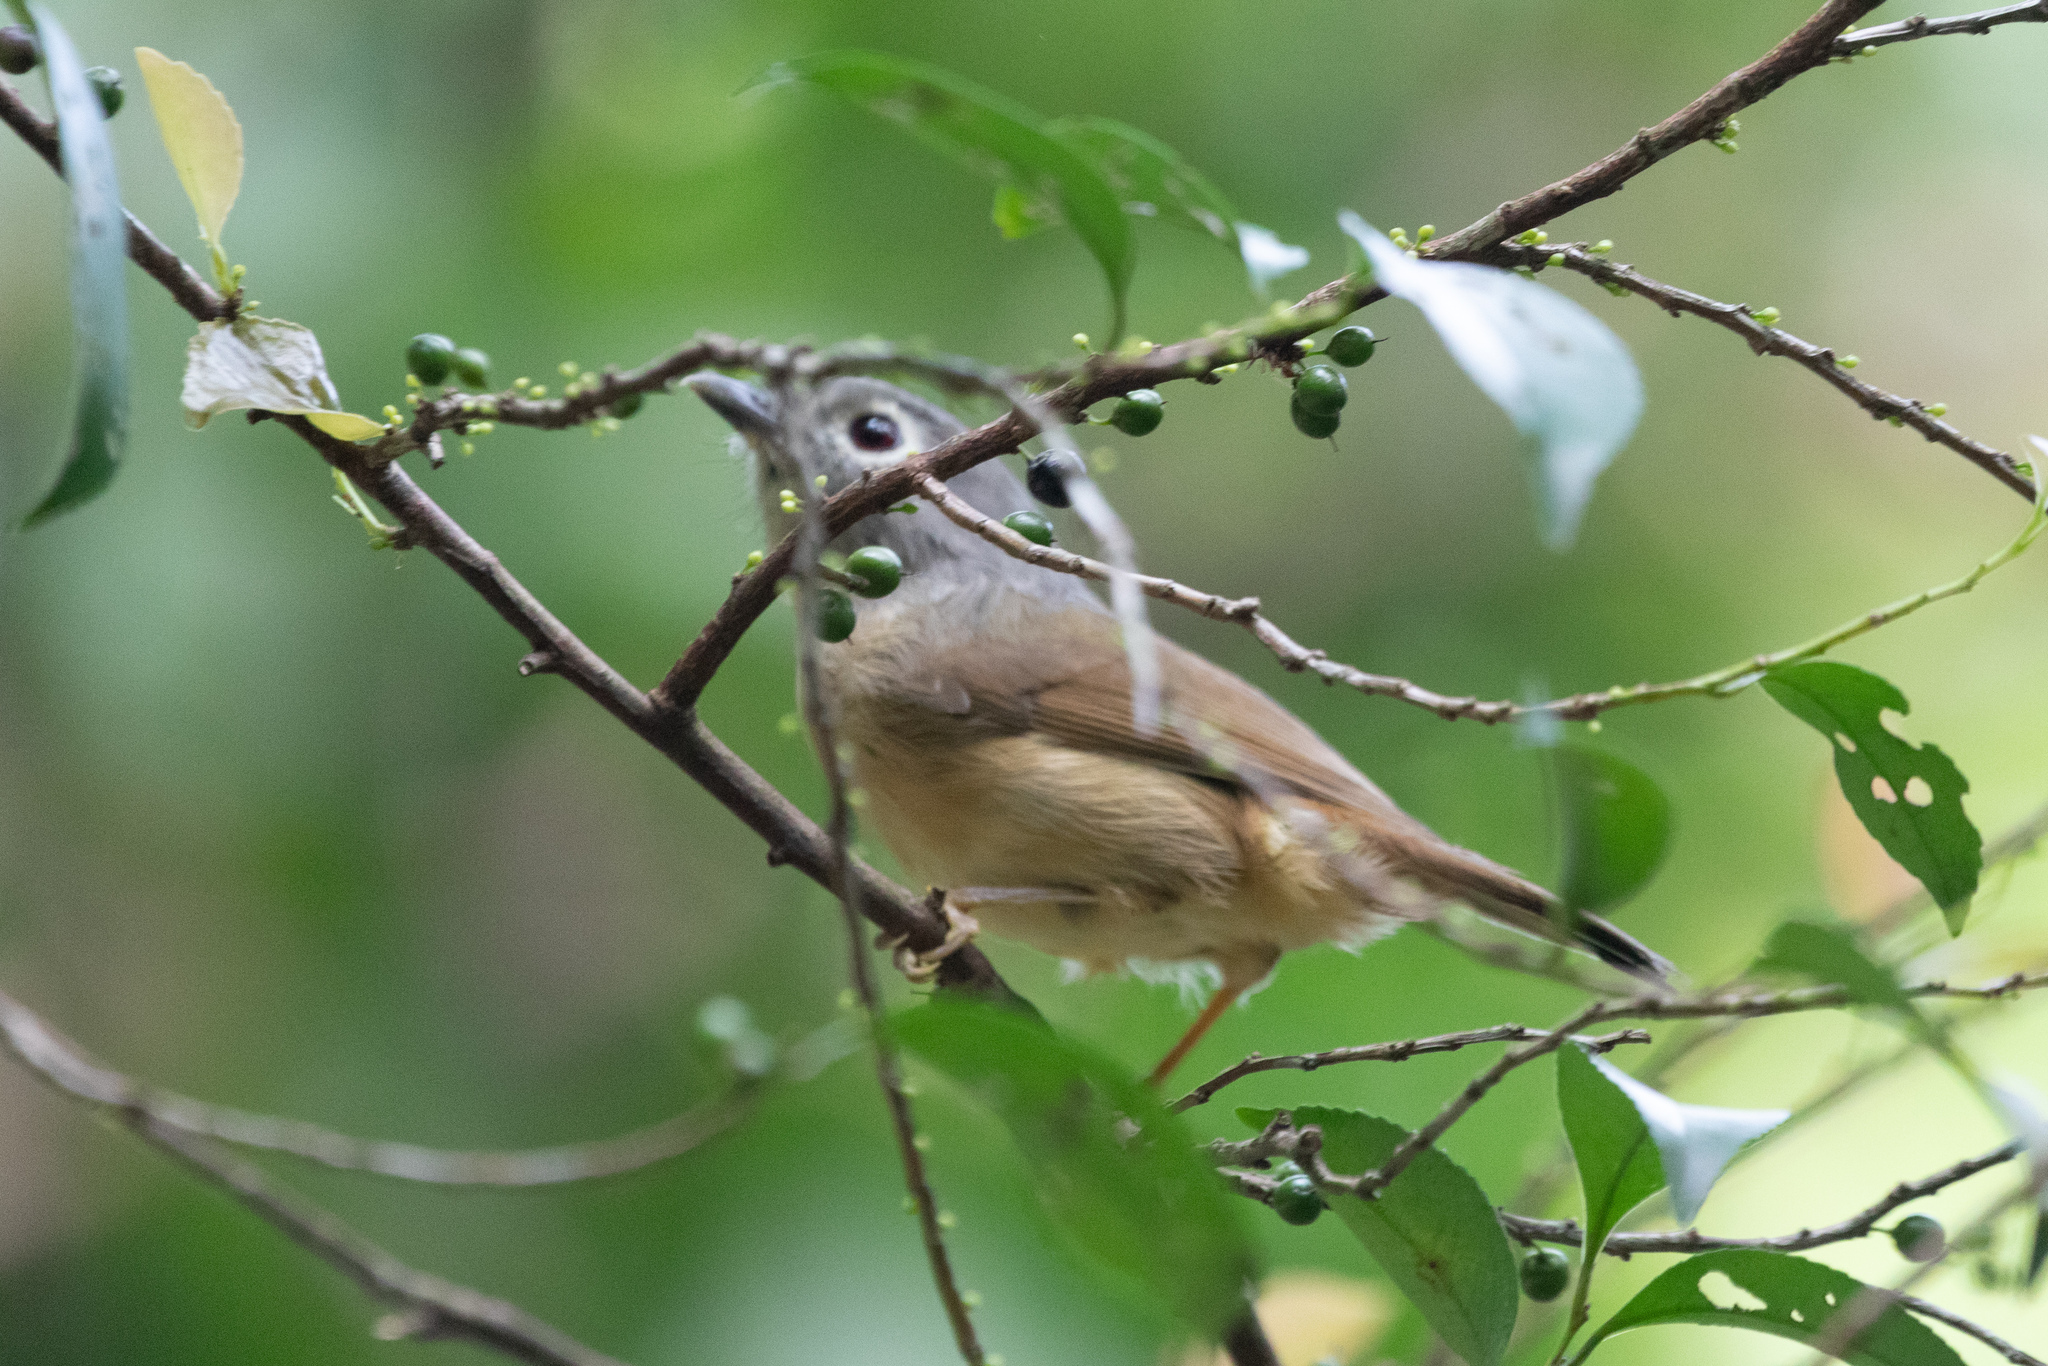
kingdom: Animalia
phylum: Chordata
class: Aves
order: Passeriformes
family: Pellorneidae
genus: Alcippe
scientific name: Alcippe hueti
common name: Huet's fulvetta
